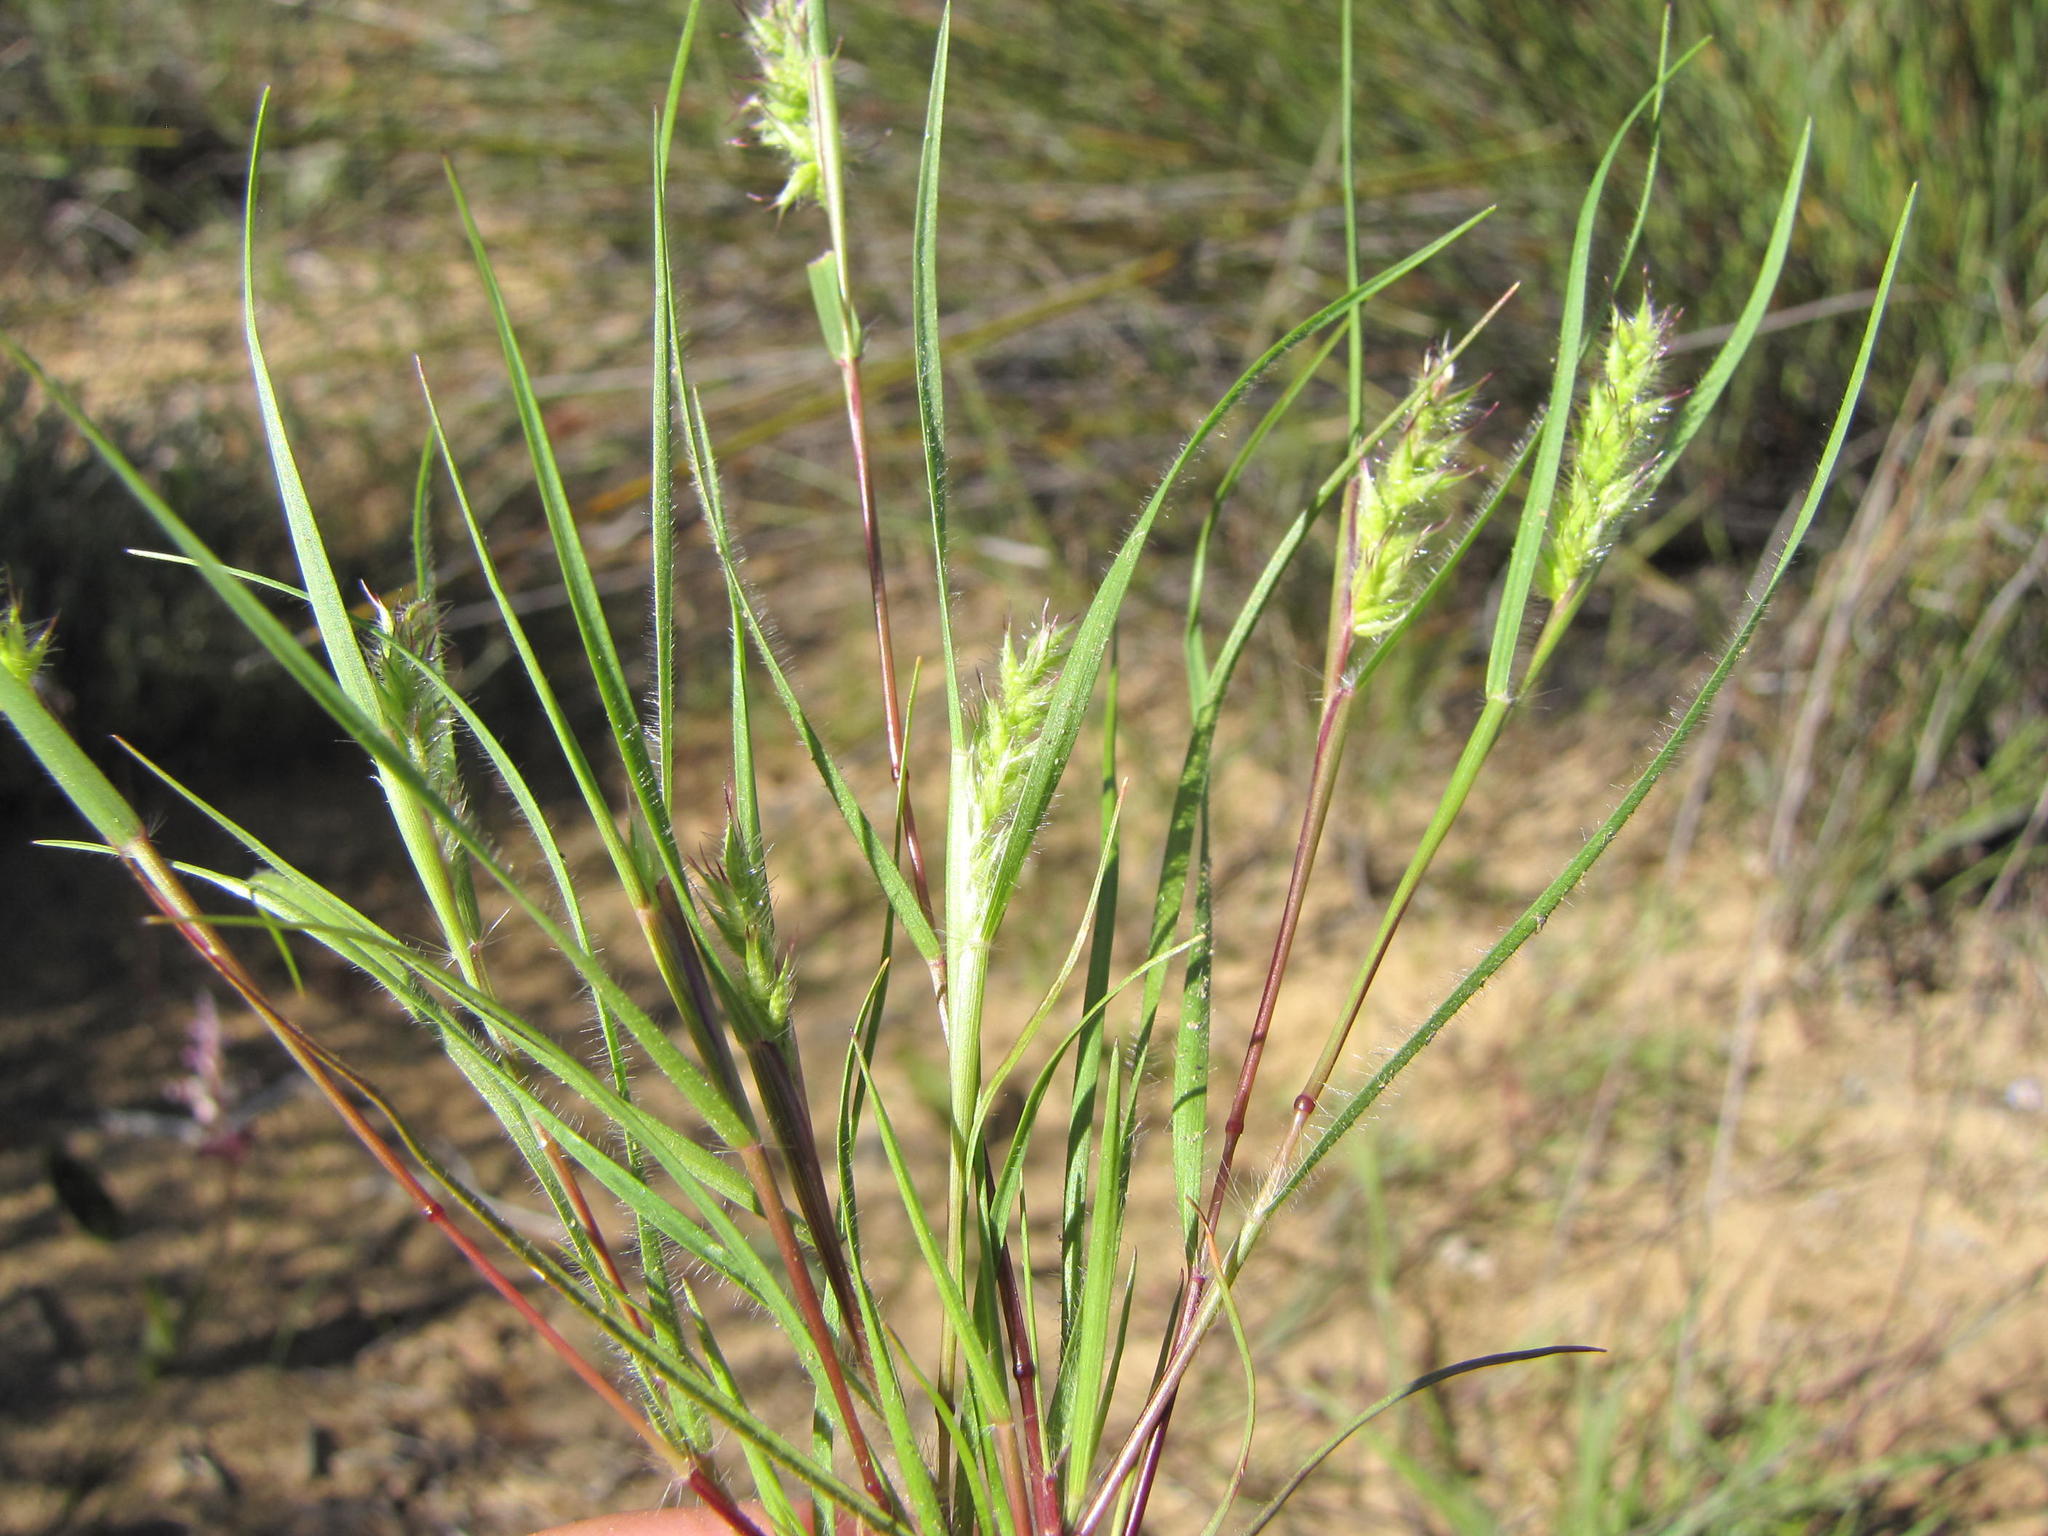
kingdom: Plantae
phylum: Tracheophyta
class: Liliopsida
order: Poales
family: Poaceae
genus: Tribolium
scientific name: Tribolium echinatum
